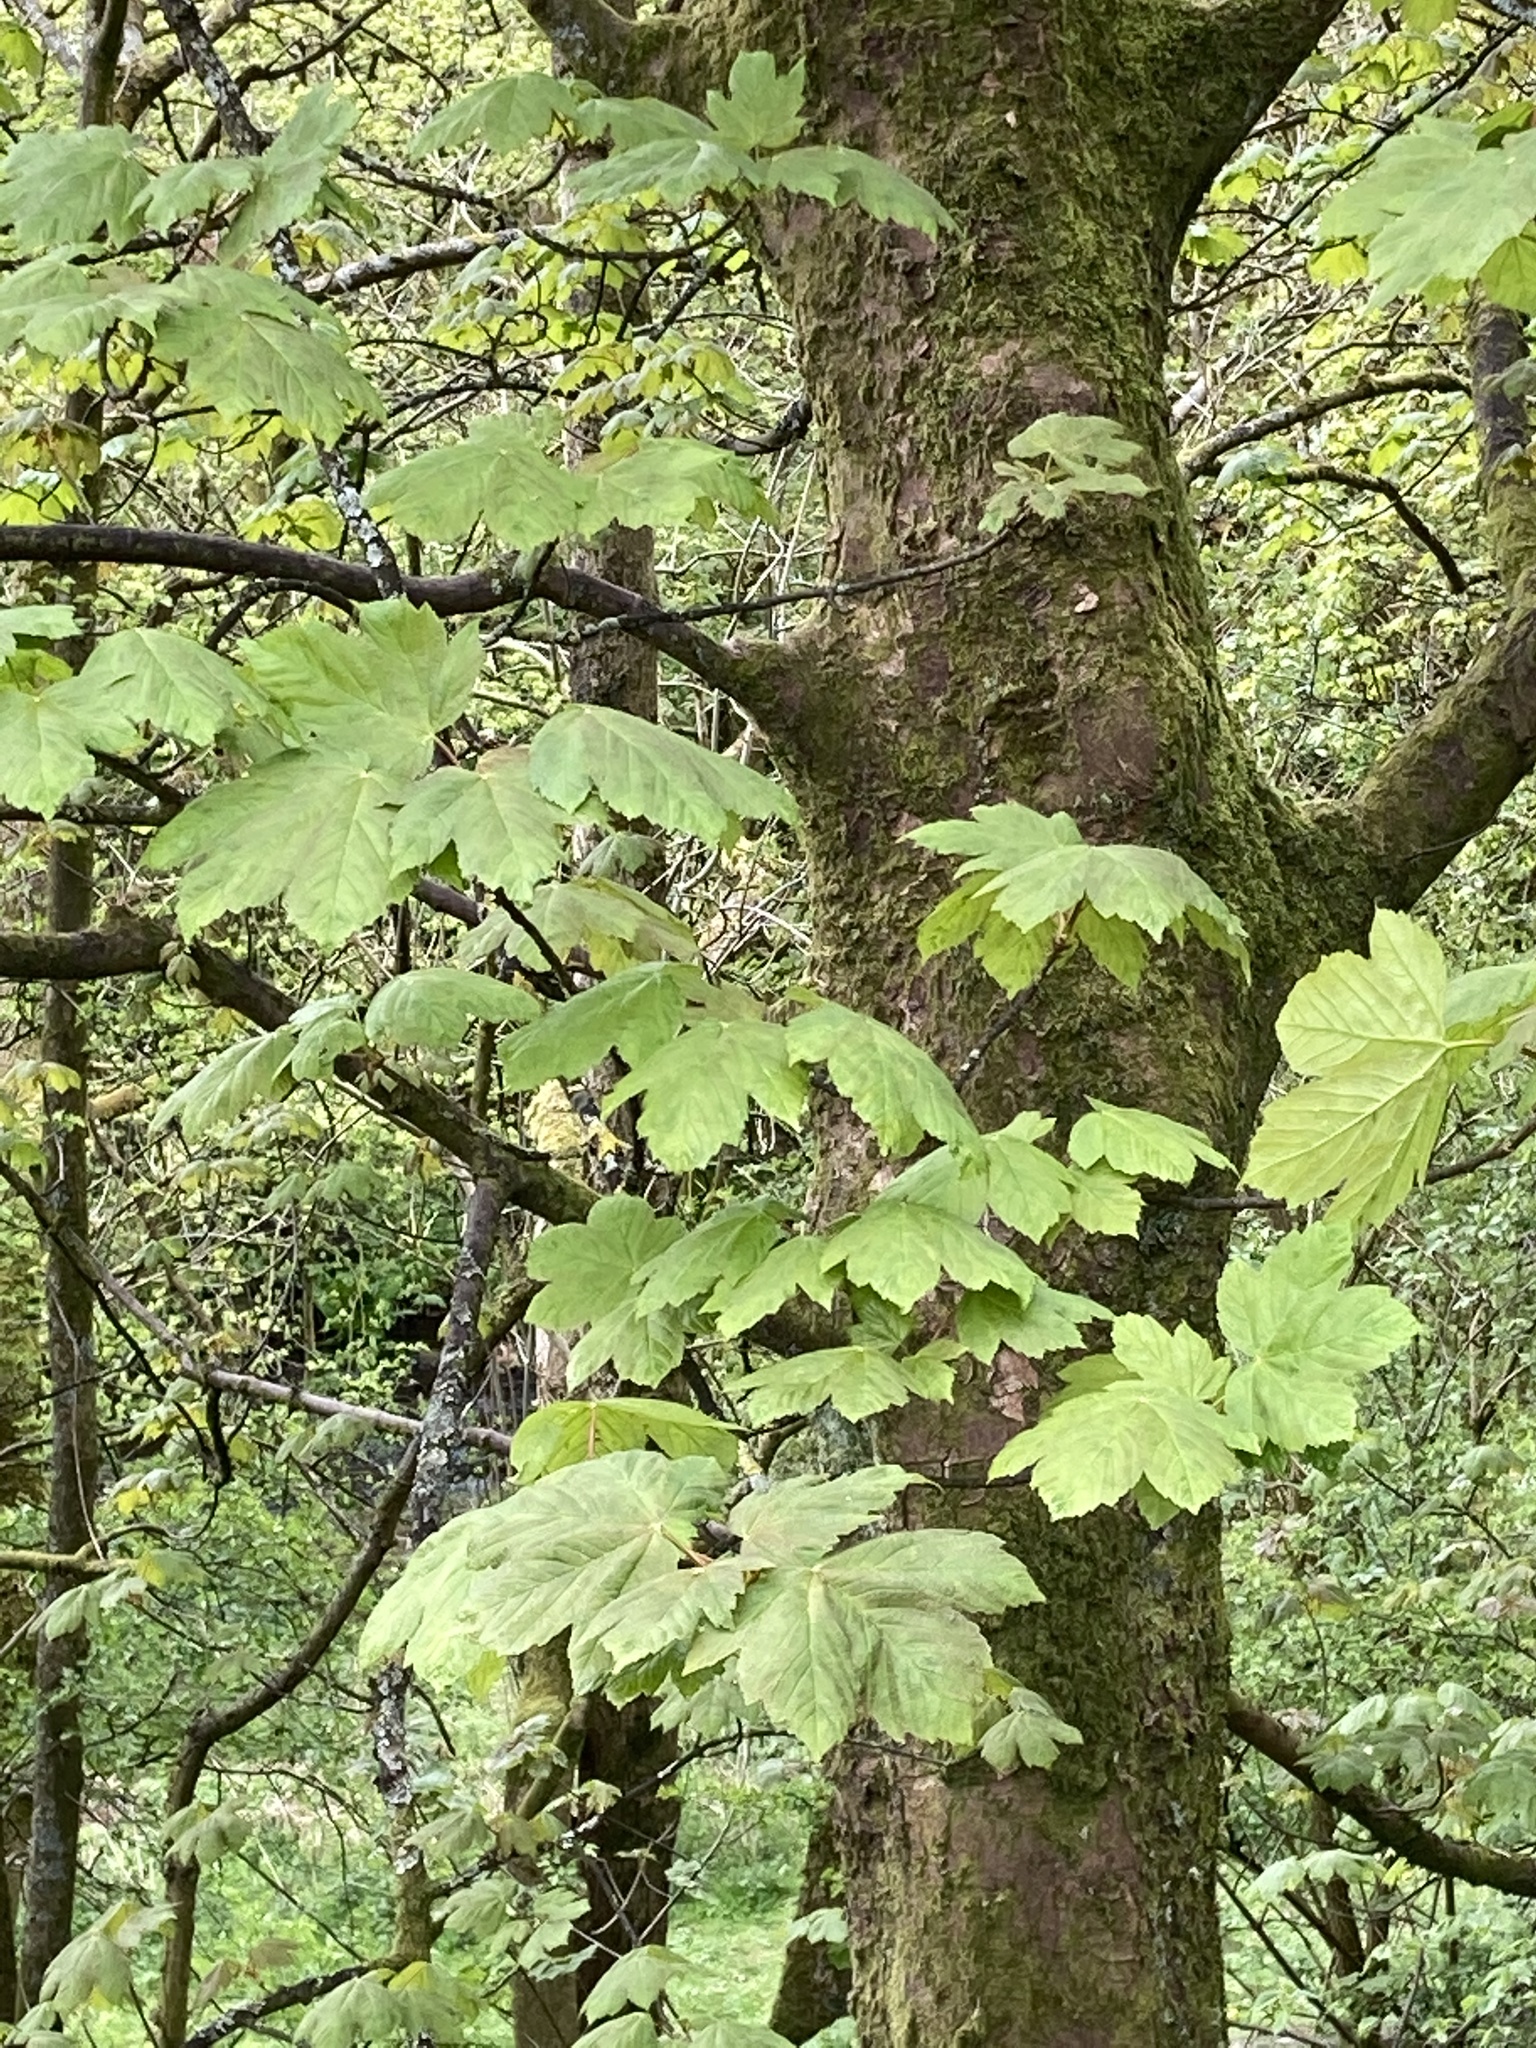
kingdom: Plantae
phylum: Tracheophyta
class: Magnoliopsida
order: Sapindales
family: Sapindaceae
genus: Acer
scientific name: Acer pseudoplatanus
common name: Sycamore
